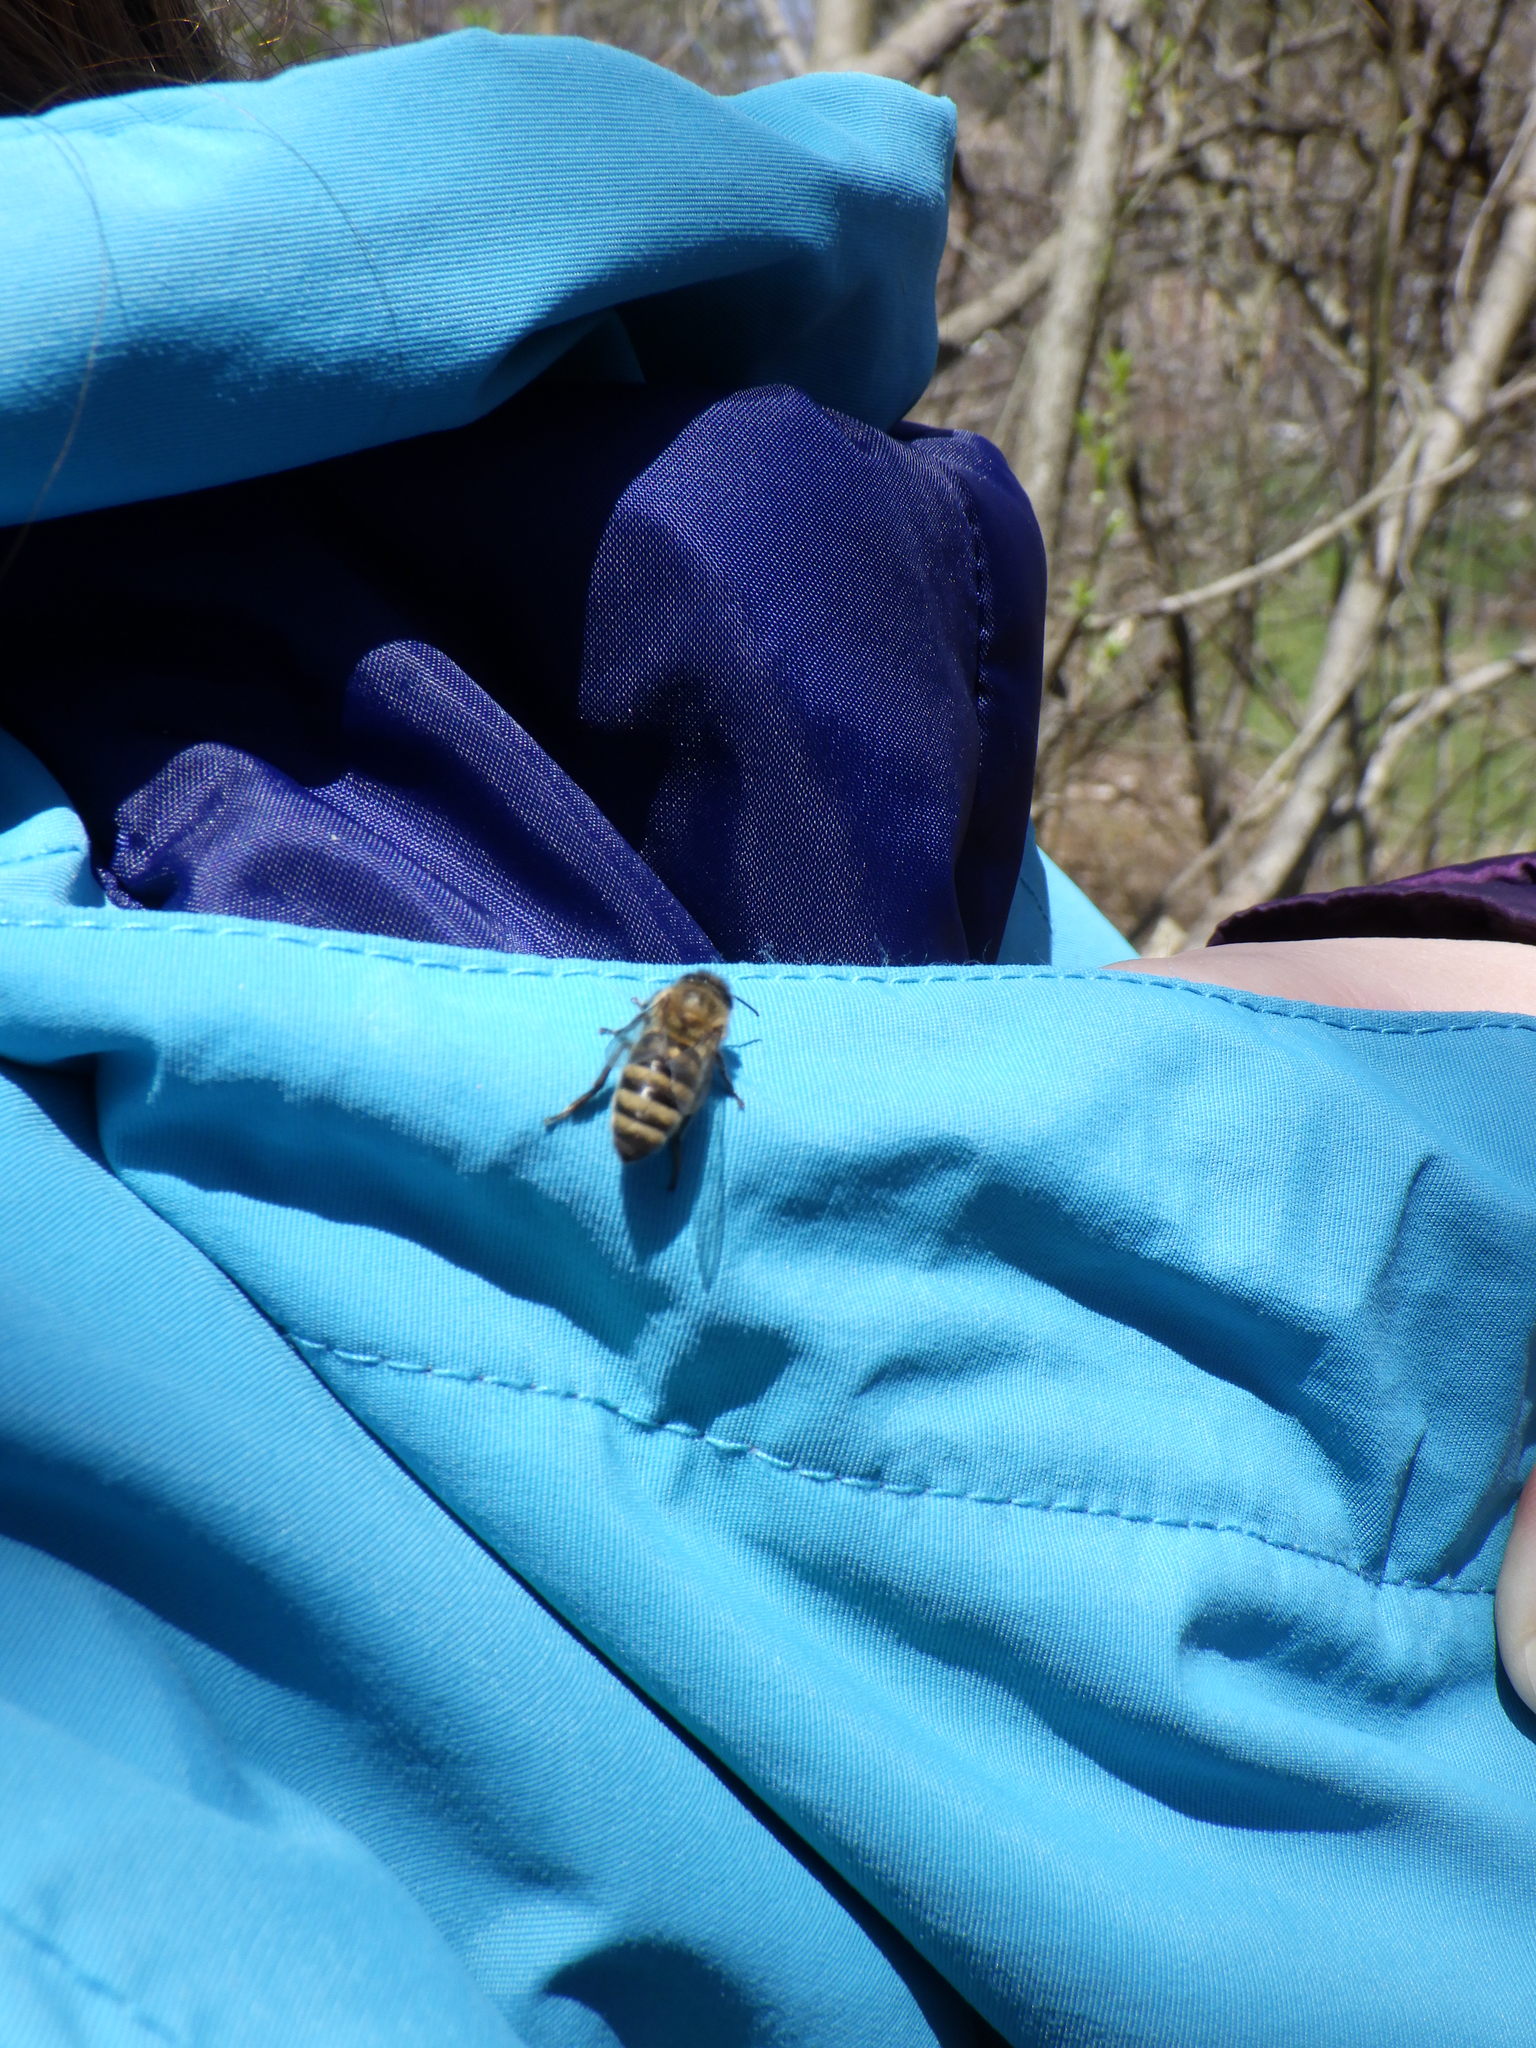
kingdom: Animalia
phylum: Arthropoda
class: Insecta
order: Hymenoptera
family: Apidae
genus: Apis
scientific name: Apis mellifera
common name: Honey bee
